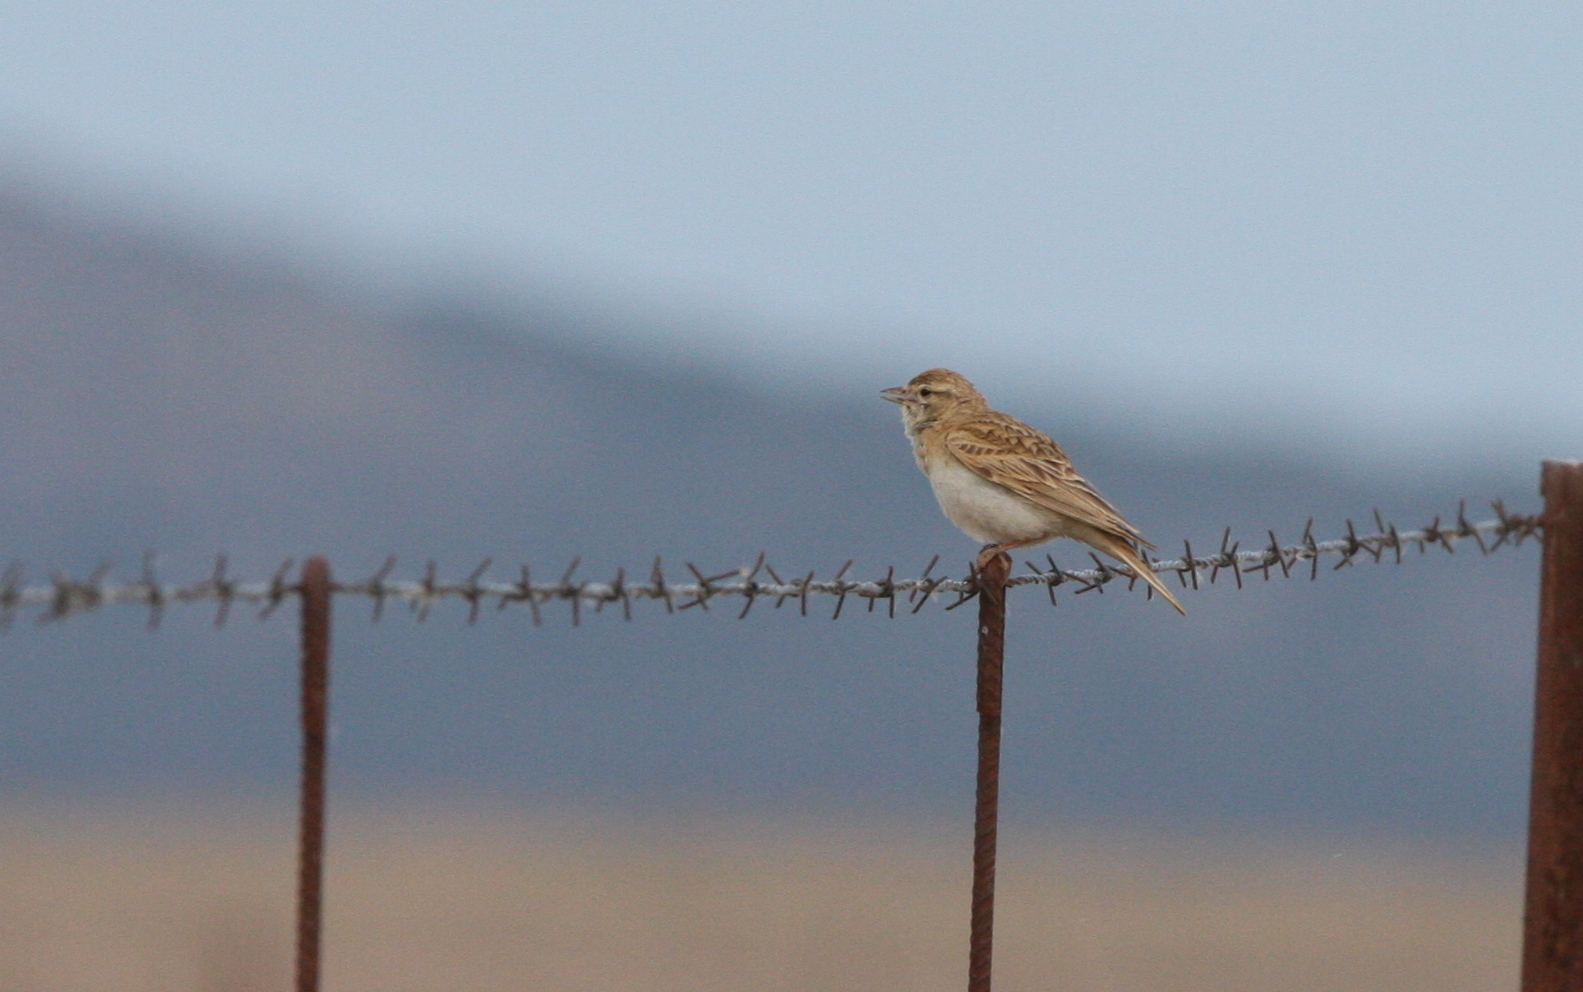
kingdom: Animalia
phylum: Chordata
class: Aves
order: Passeriformes
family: Alaudidae
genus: Calandrella
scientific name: Calandrella brachydactyla
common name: Greater short-toed lark
